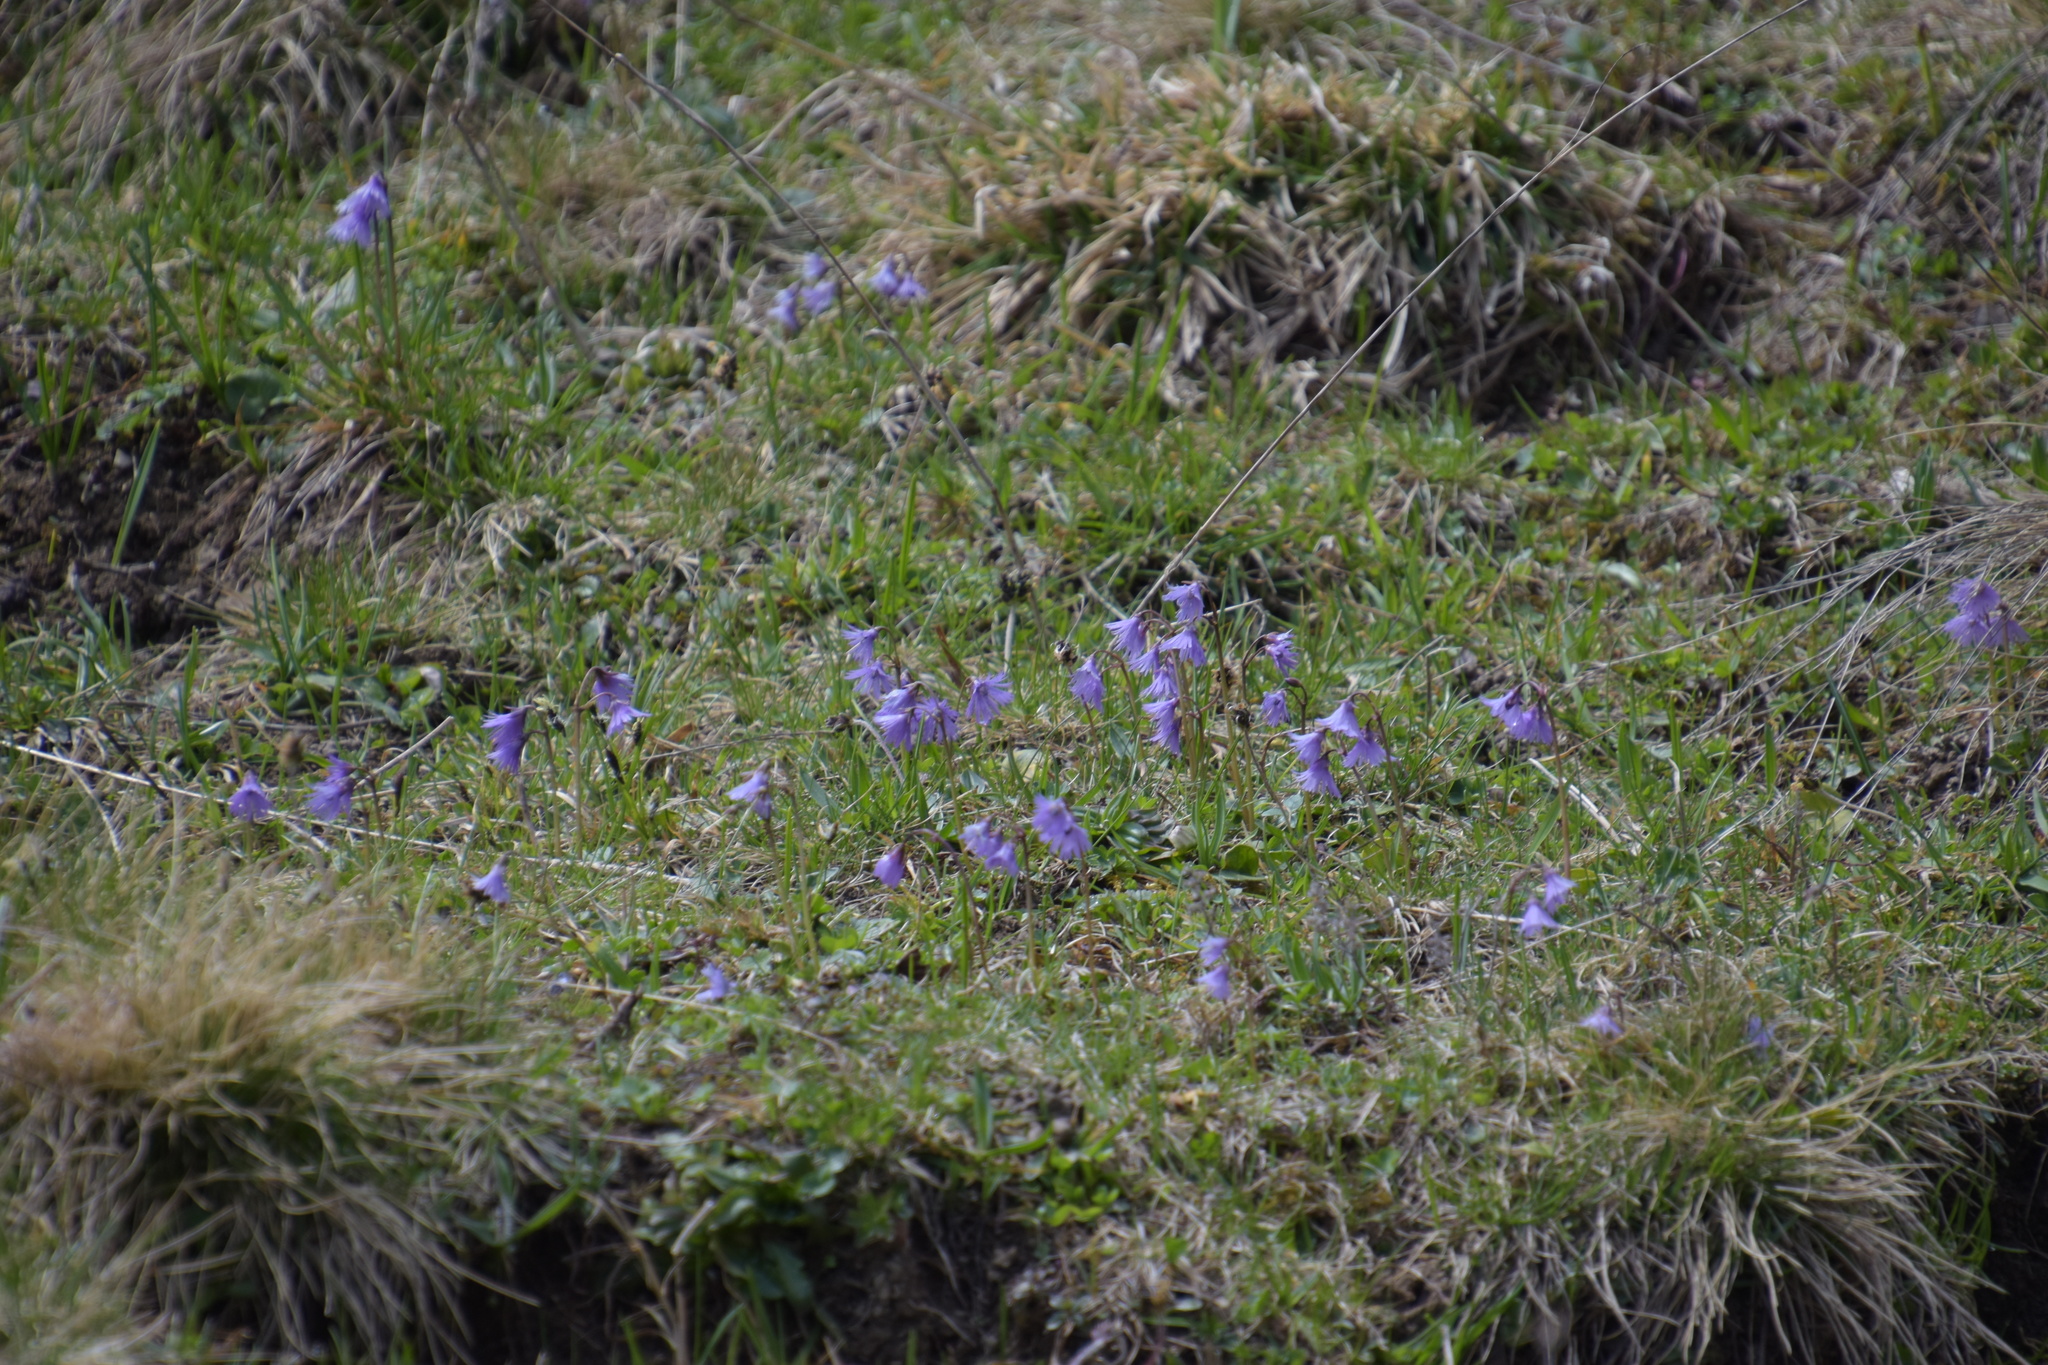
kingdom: Plantae
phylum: Tracheophyta
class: Magnoliopsida
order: Ericales
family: Primulaceae
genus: Soldanella
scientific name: Soldanella alpina
